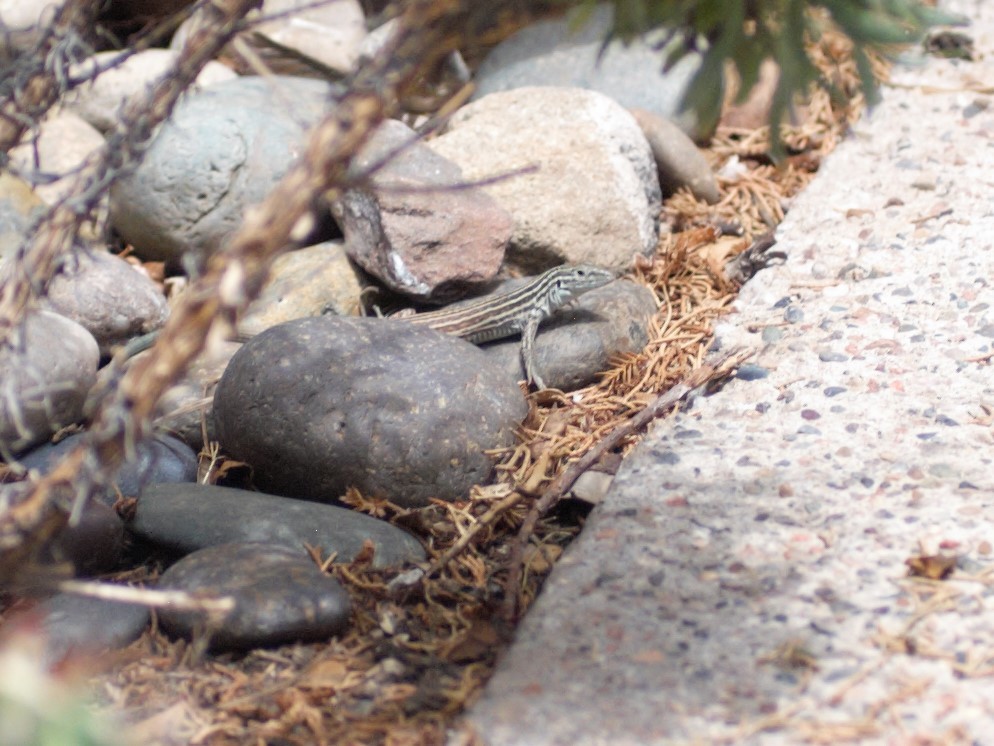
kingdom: Animalia
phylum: Chordata
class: Squamata
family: Teiidae
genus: Aspidoscelis
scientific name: Aspidoscelis neomexicanus
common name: New mexico whiptail
